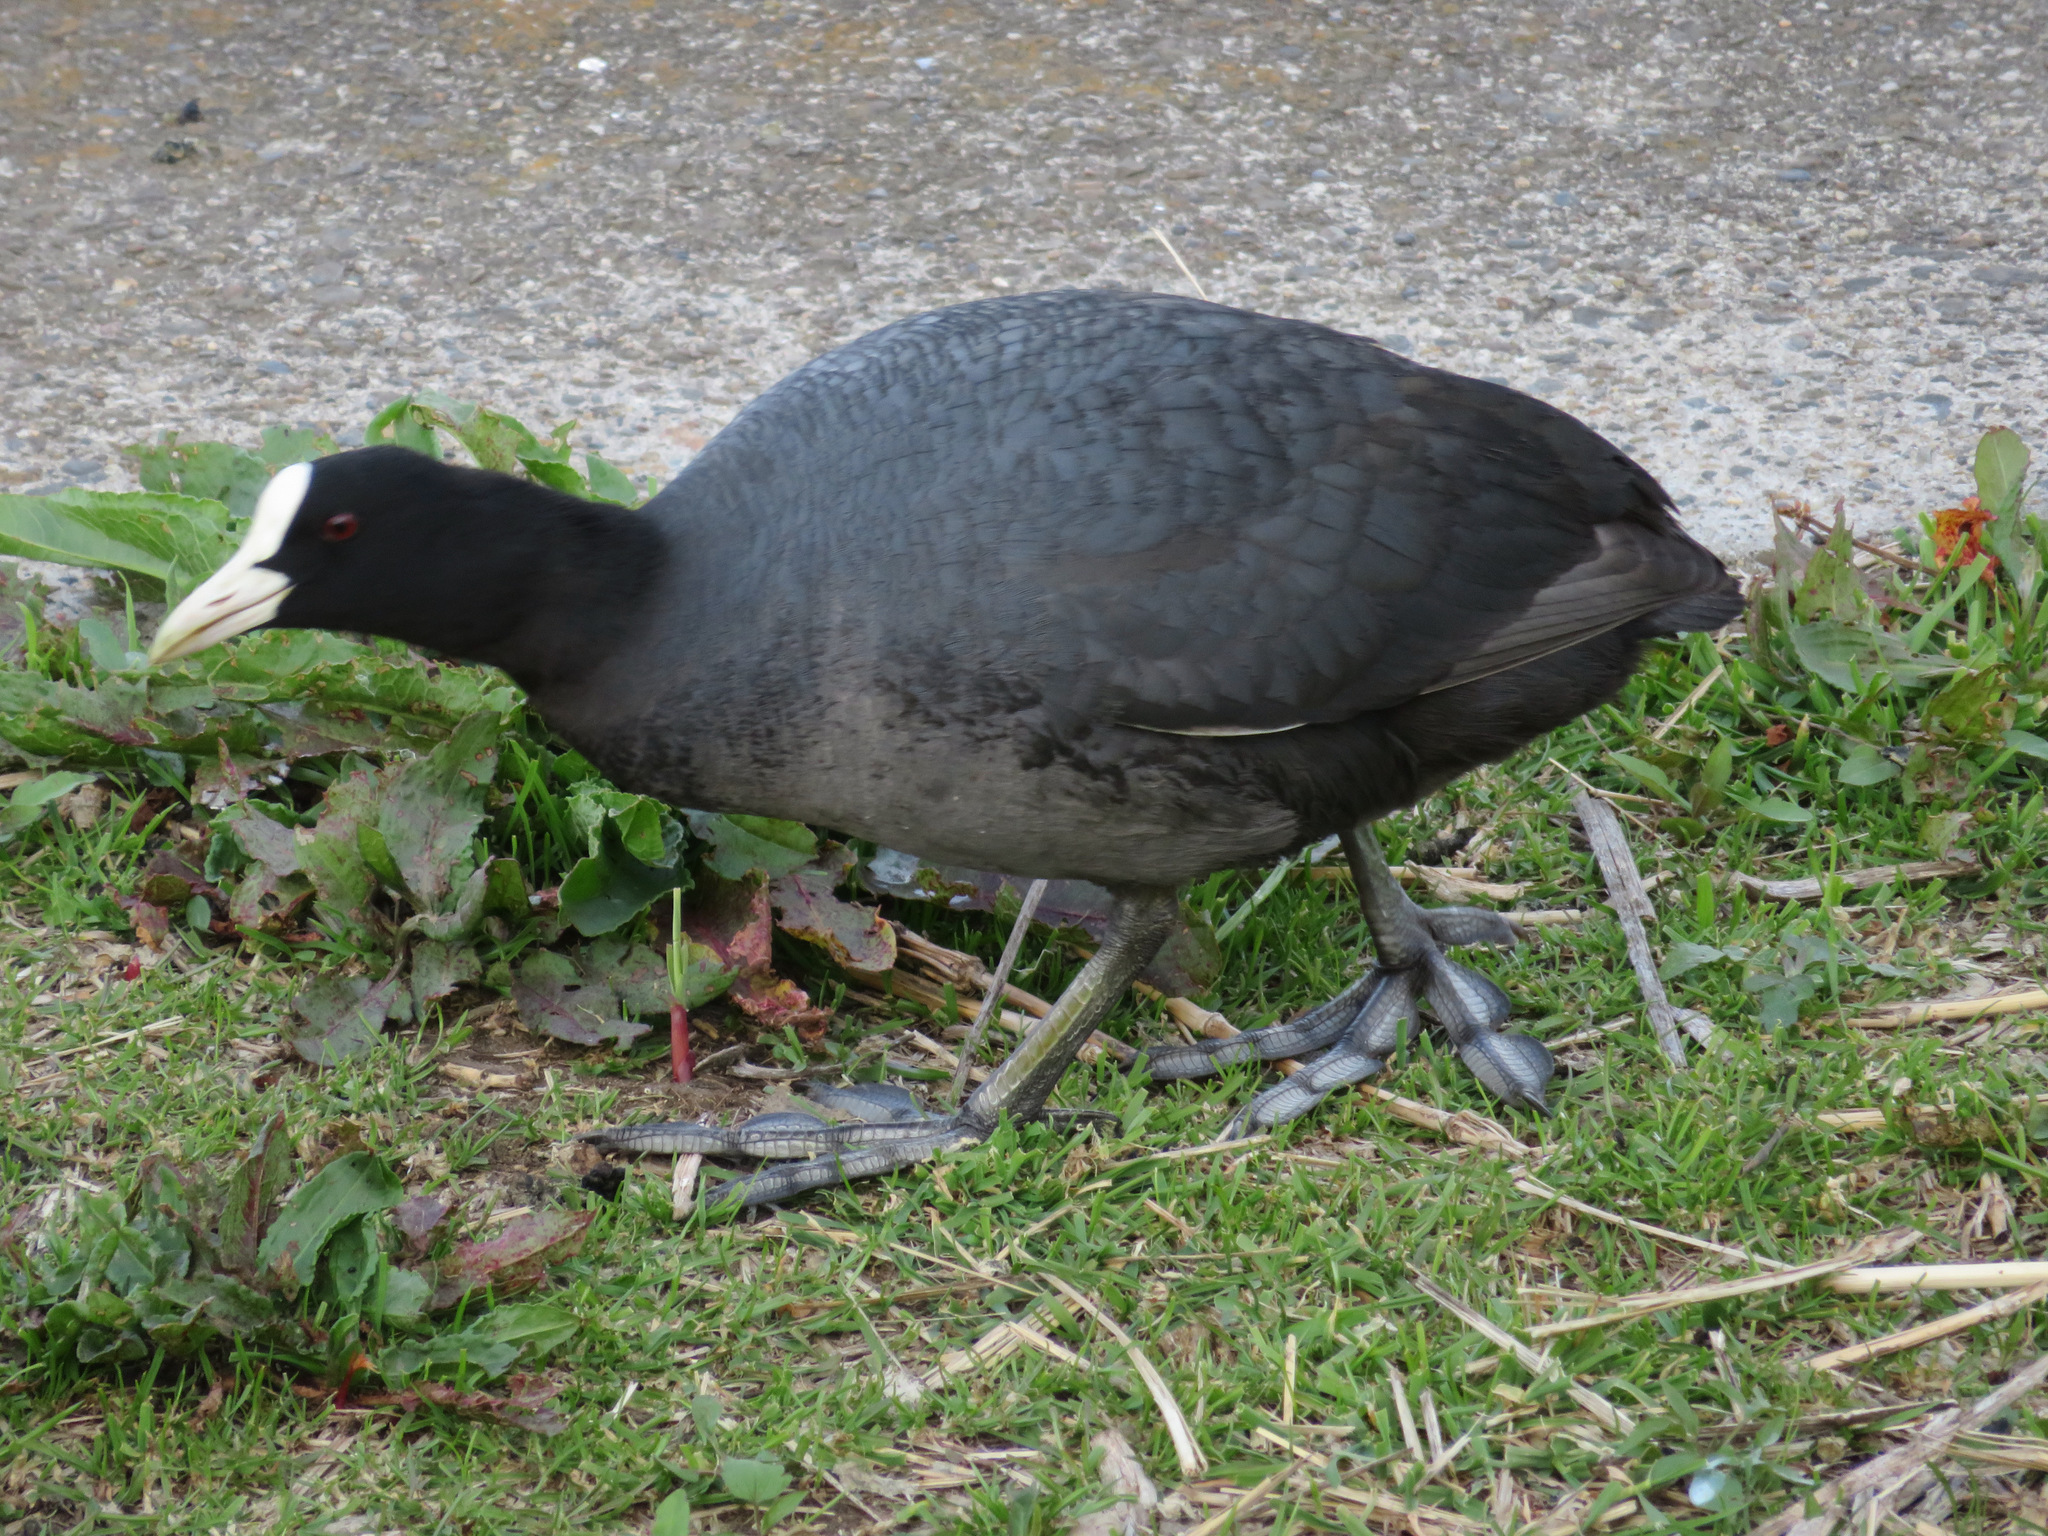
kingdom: Animalia
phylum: Chordata
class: Aves
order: Gruiformes
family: Rallidae
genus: Fulica
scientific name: Fulica atra
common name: Eurasian coot
